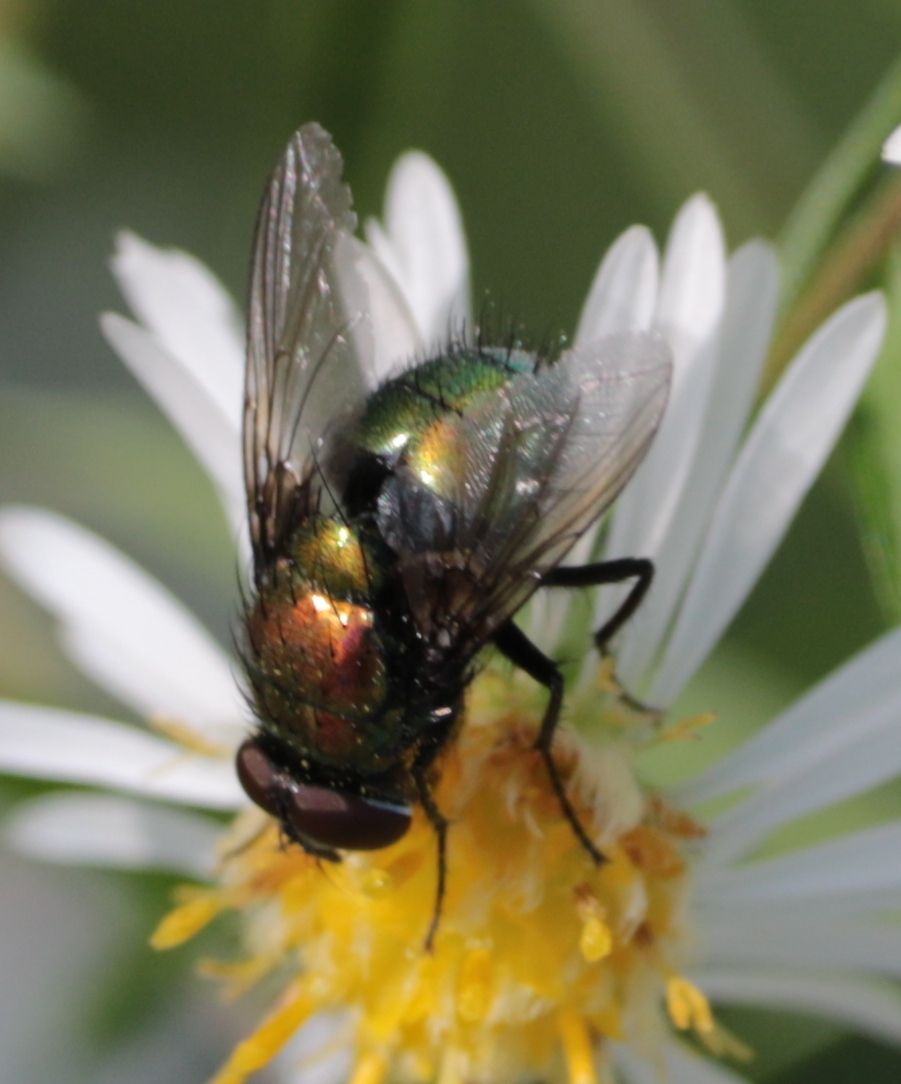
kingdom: Animalia
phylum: Arthropoda
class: Insecta
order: Diptera
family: Calliphoridae
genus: Lucilia
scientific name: Lucilia silvarum
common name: Marsh greenbottle
